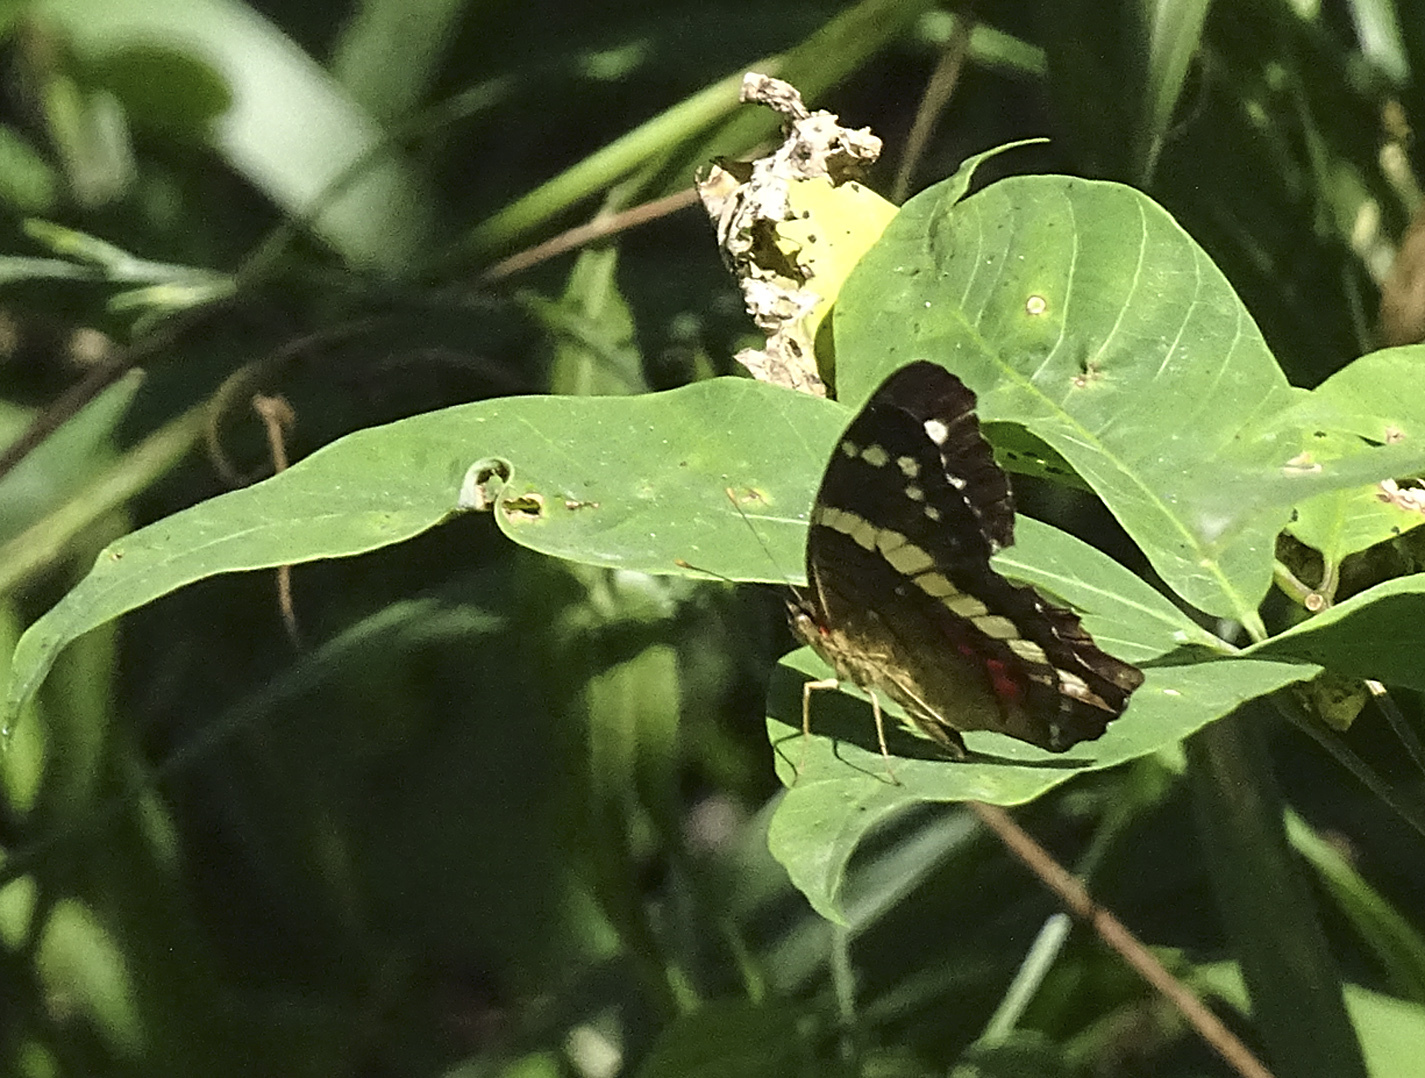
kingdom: Animalia
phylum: Arthropoda
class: Insecta
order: Lepidoptera
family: Nymphalidae
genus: Anartia
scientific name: Anartia fatima
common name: Banded peacock
